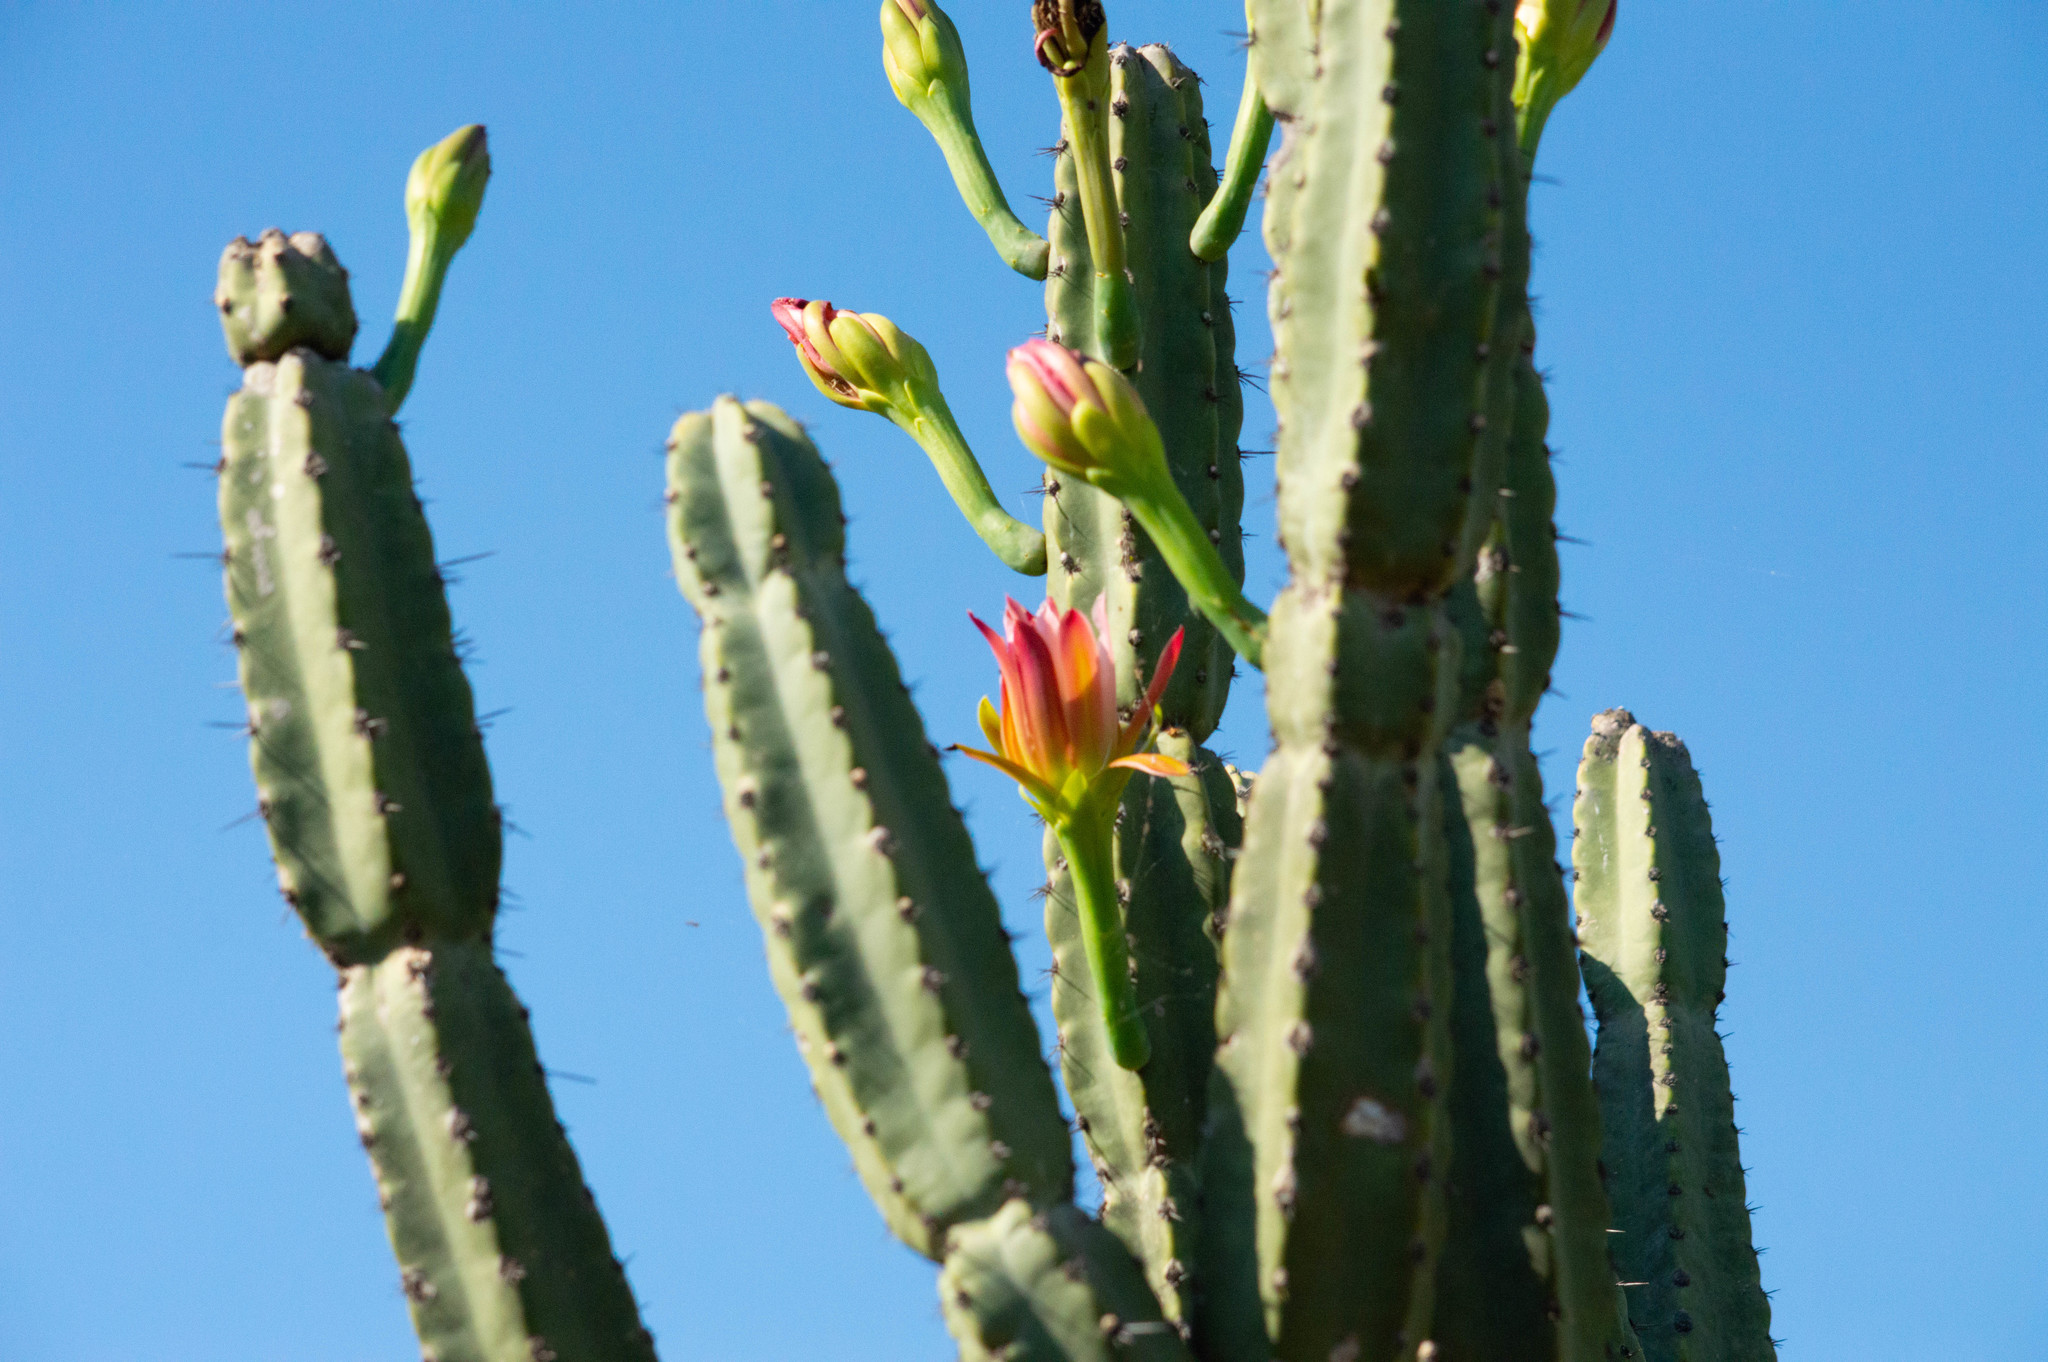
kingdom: Plantae
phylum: Tracheophyta
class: Magnoliopsida
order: Caryophyllales
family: Cactaceae
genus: Cereus
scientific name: Cereus forbesii
